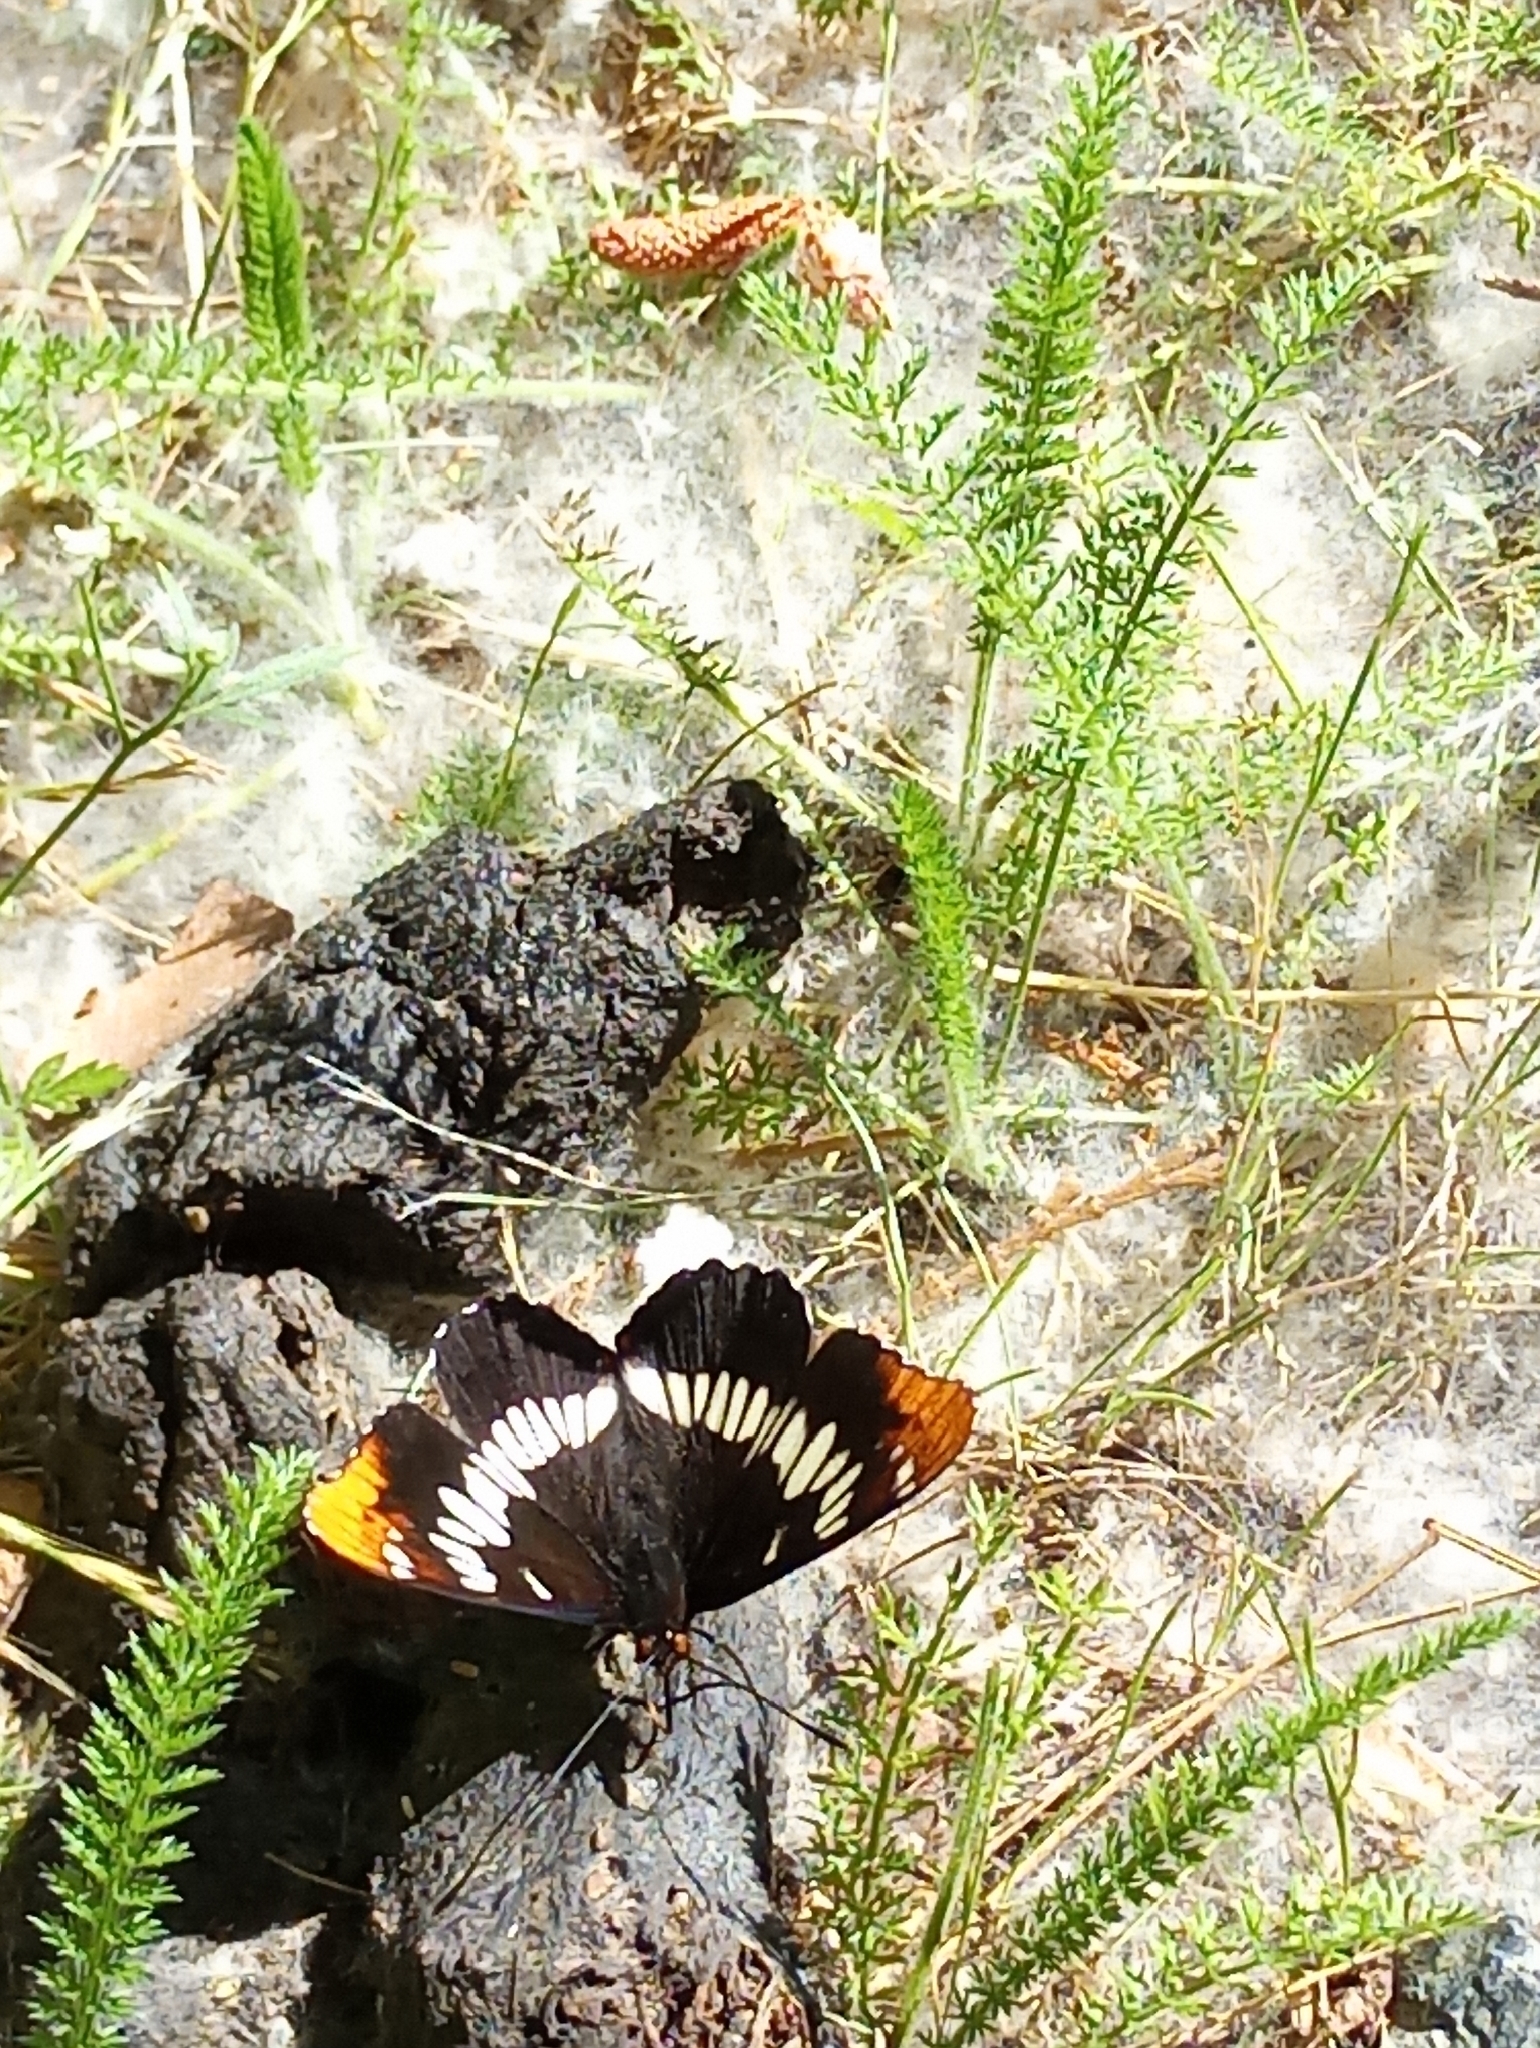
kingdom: Animalia
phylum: Arthropoda
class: Insecta
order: Lepidoptera
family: Nymphalidae
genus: Limenitis
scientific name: Limenitis lorquini
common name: Lorquin's admiral
